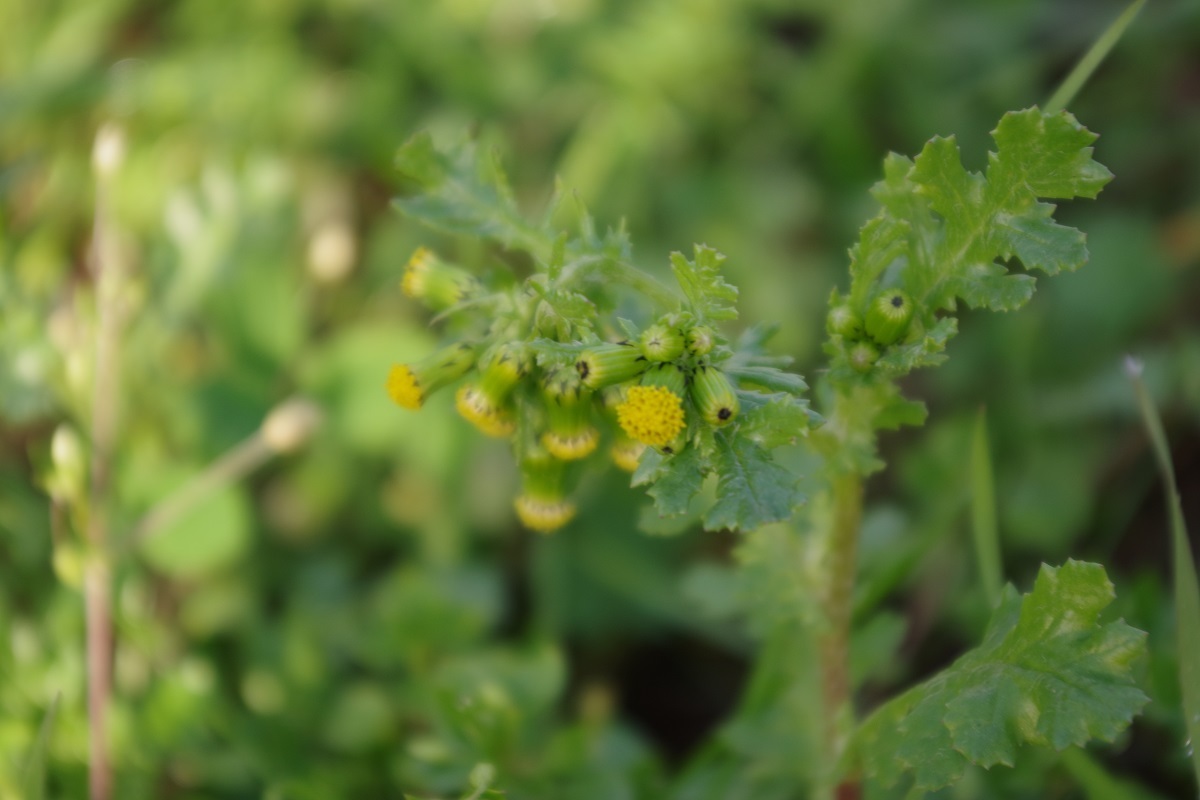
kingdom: Plantae
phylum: Tracheophyta
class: Magnoliopsida
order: Asterales
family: Asteraceae
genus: Senecio
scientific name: Senecio vulgaris
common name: Old-man-in-the-spring
